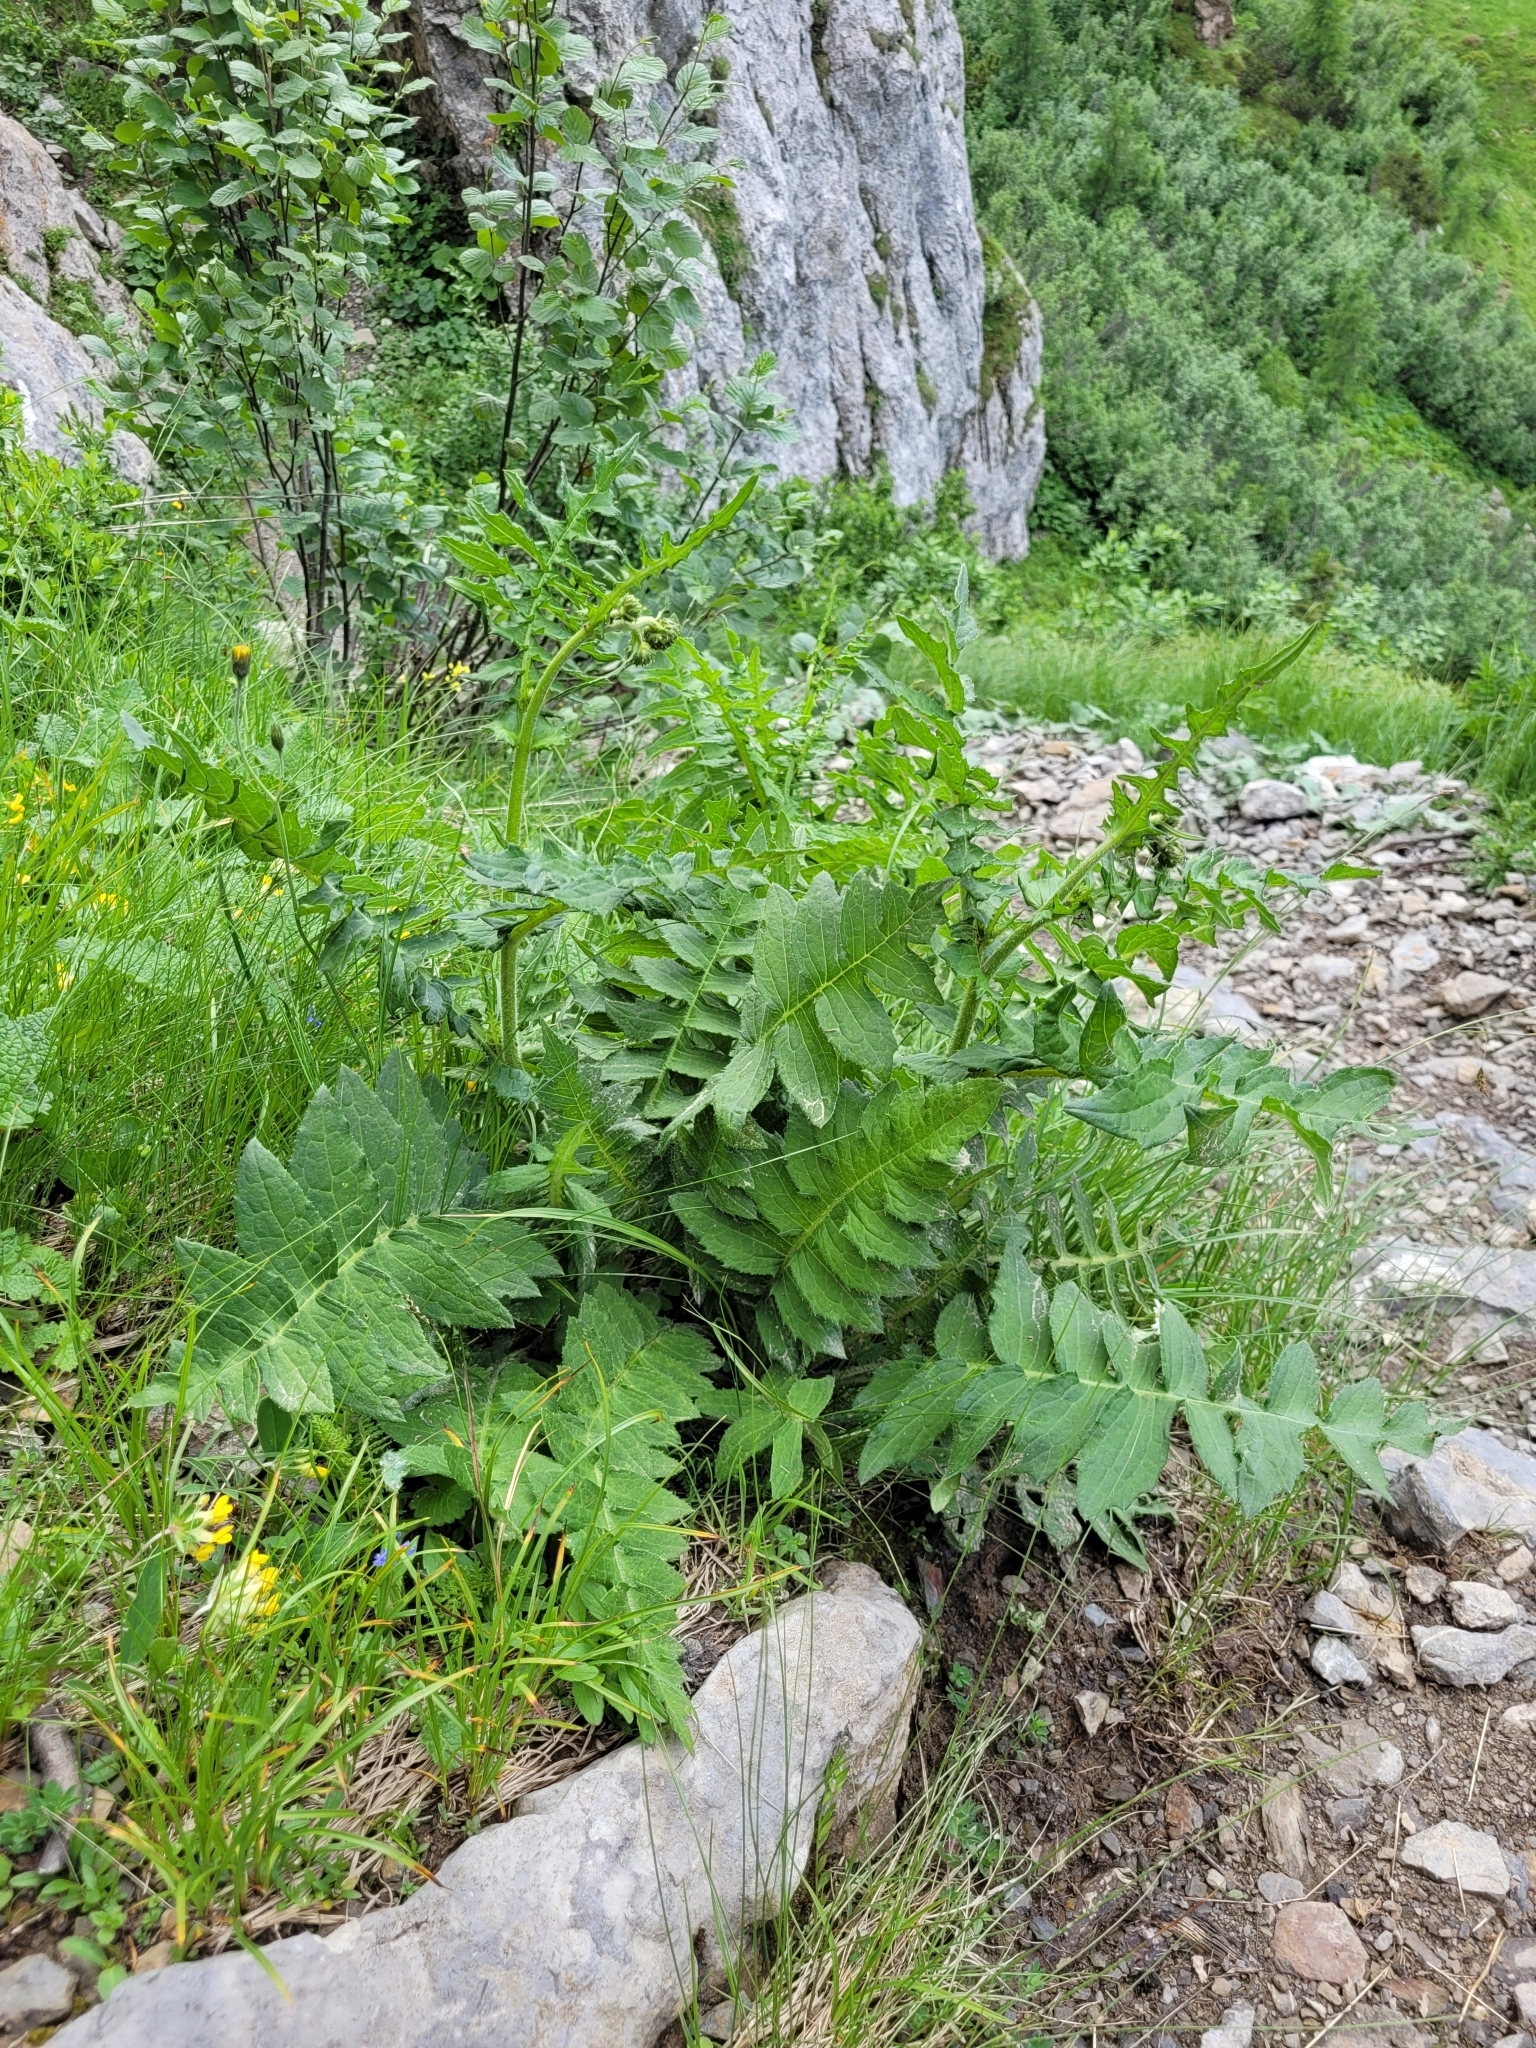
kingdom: Plantae
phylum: Tracheophyta
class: Magnoliopsida
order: Asterales
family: Asteraceae
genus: Cirsium
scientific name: Cirsium erisithales
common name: Yellow thistle
